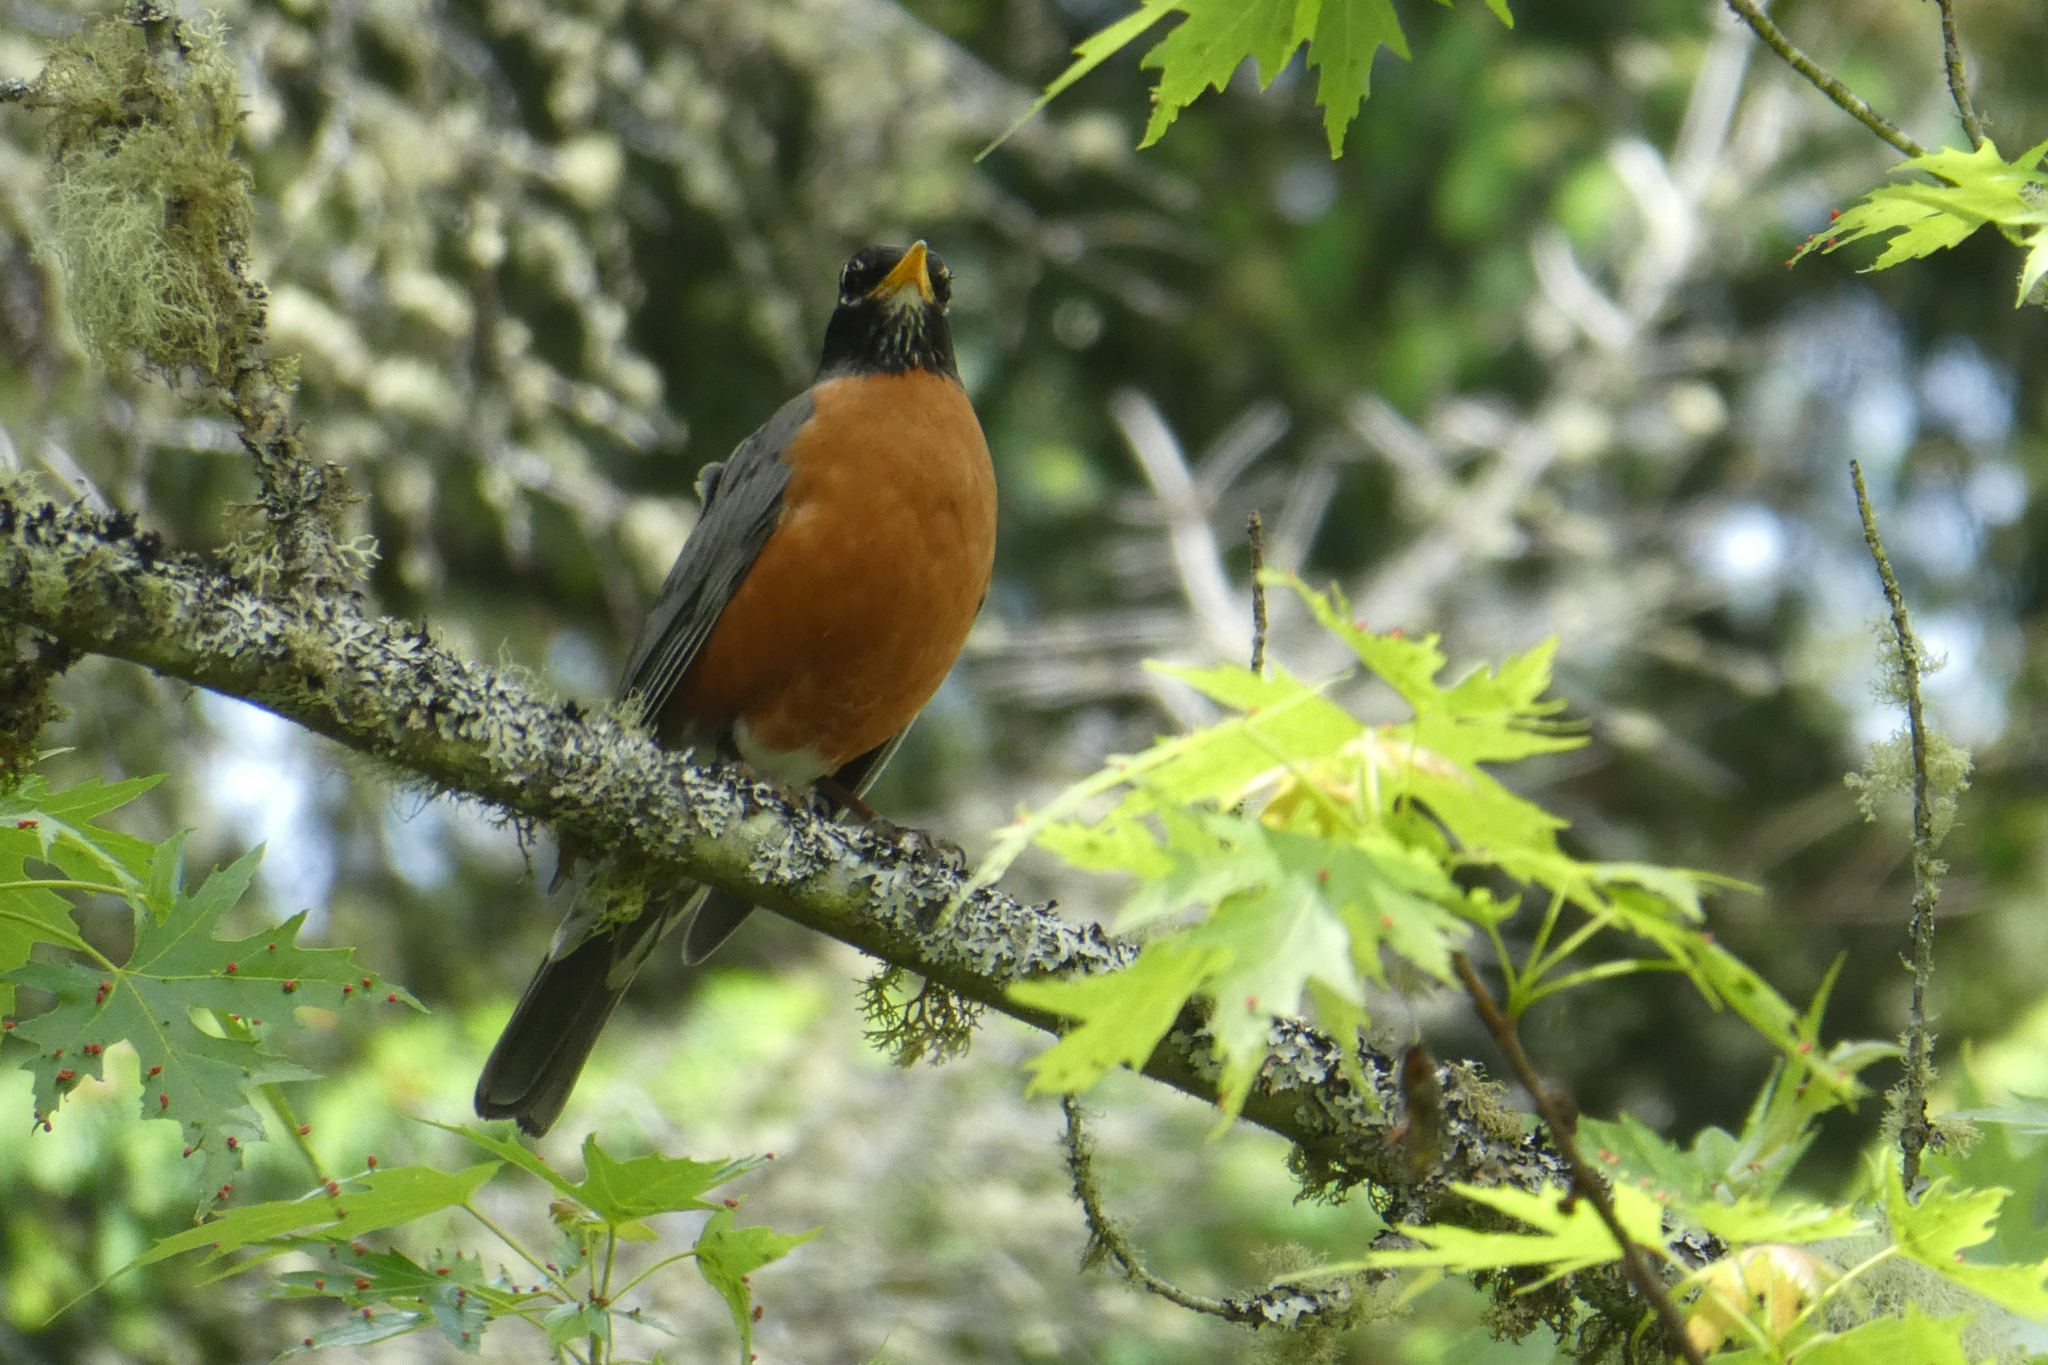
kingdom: Animalia
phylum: Chordata
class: Aves
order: Passeriformes
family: Turdidae
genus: Turdus
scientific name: Turdus migratorius
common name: American robin
